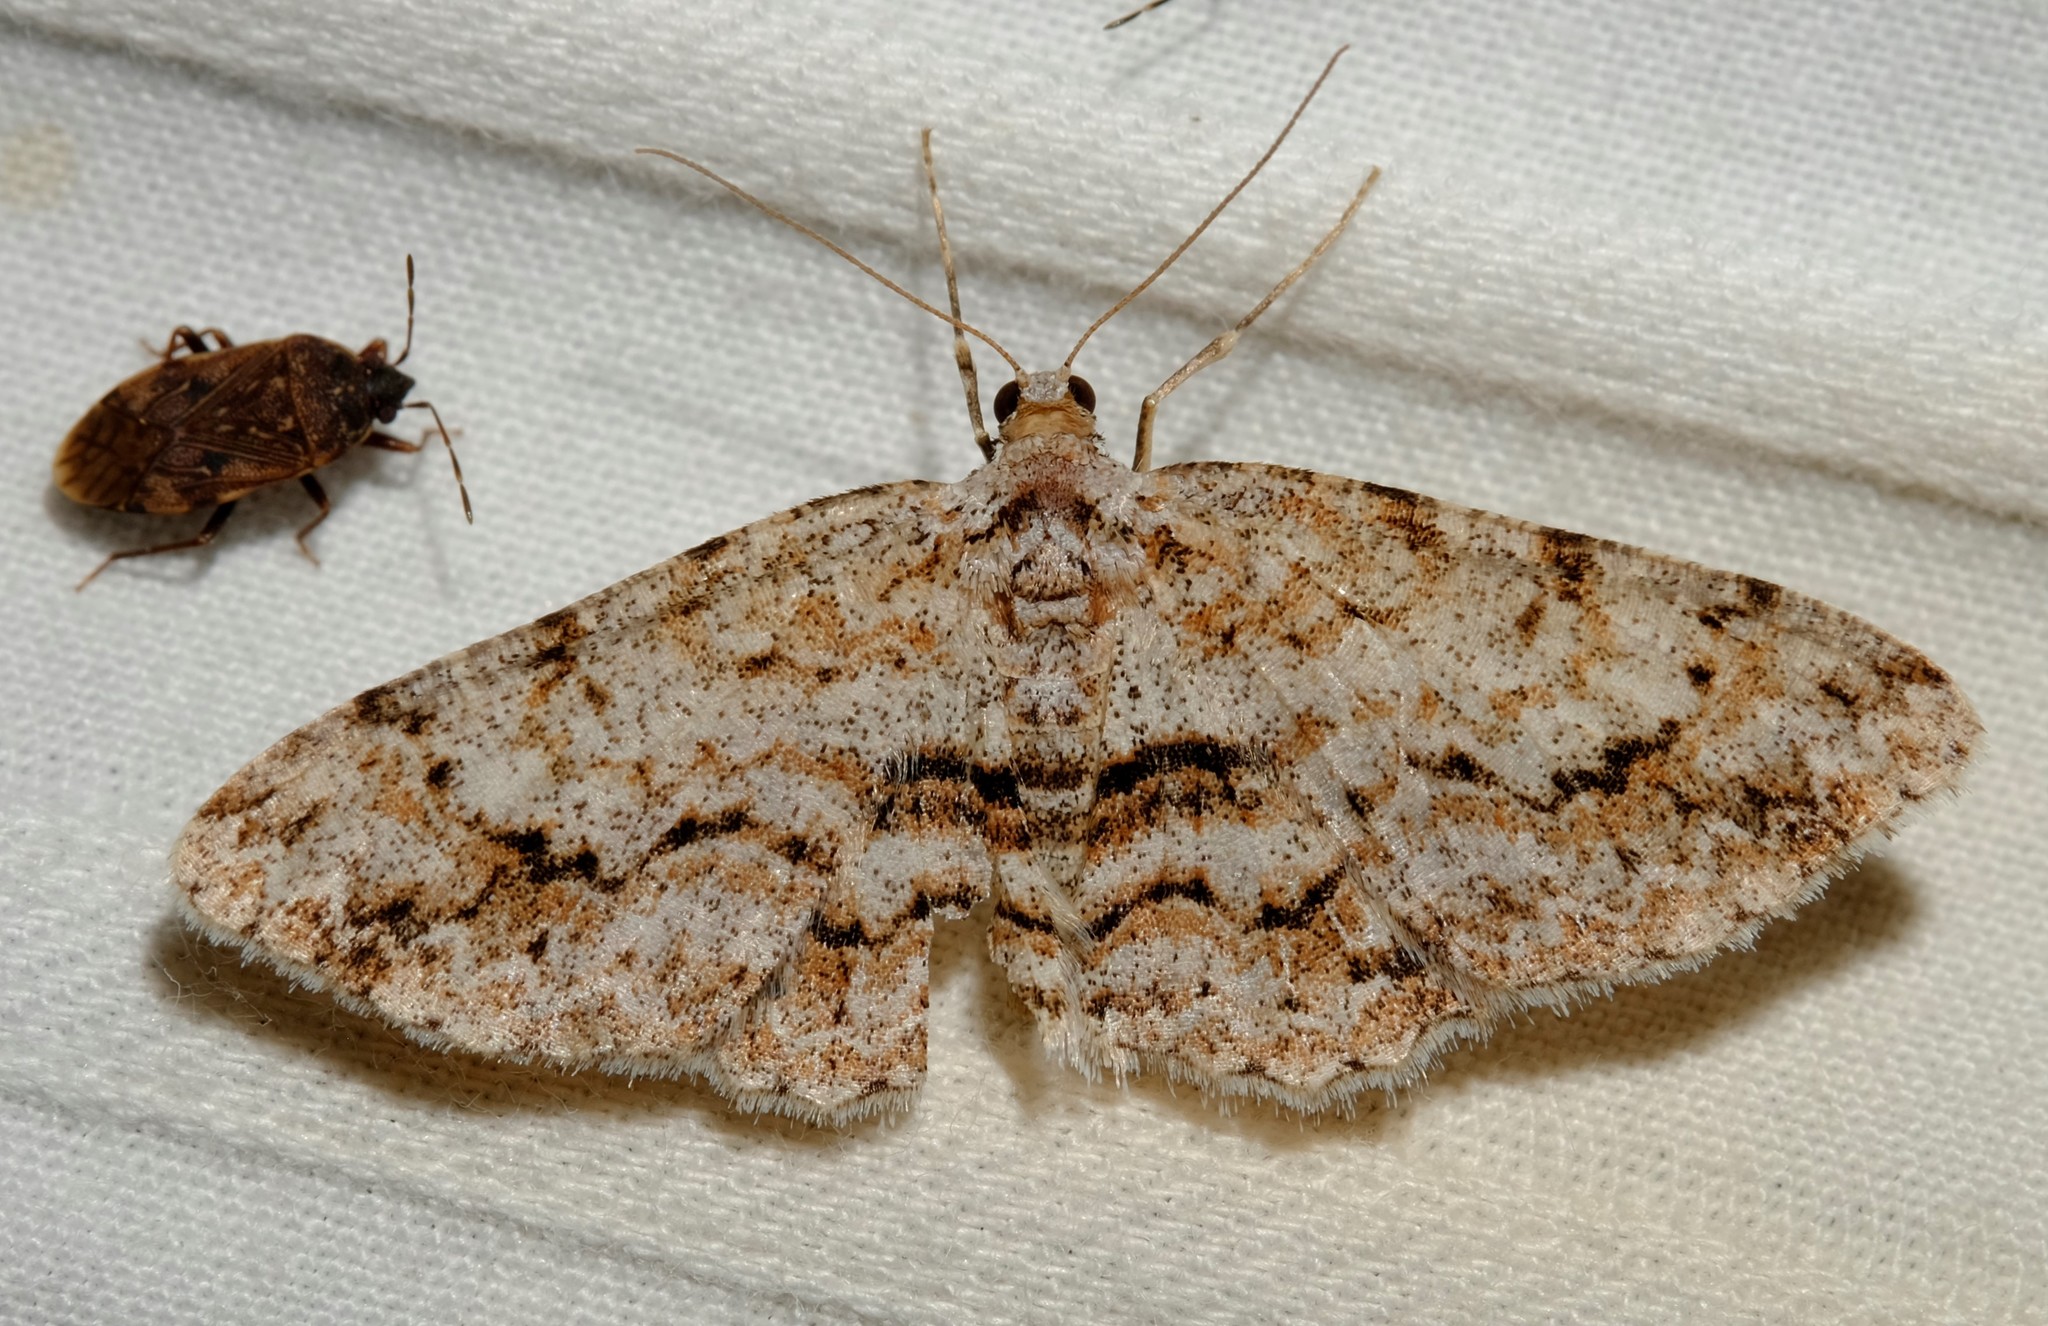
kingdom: Animalia
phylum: Arthropoda
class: Insecta
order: Lepidoptera
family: Geometridae
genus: Didymoctenia
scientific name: Didymoctenia exsuperata
